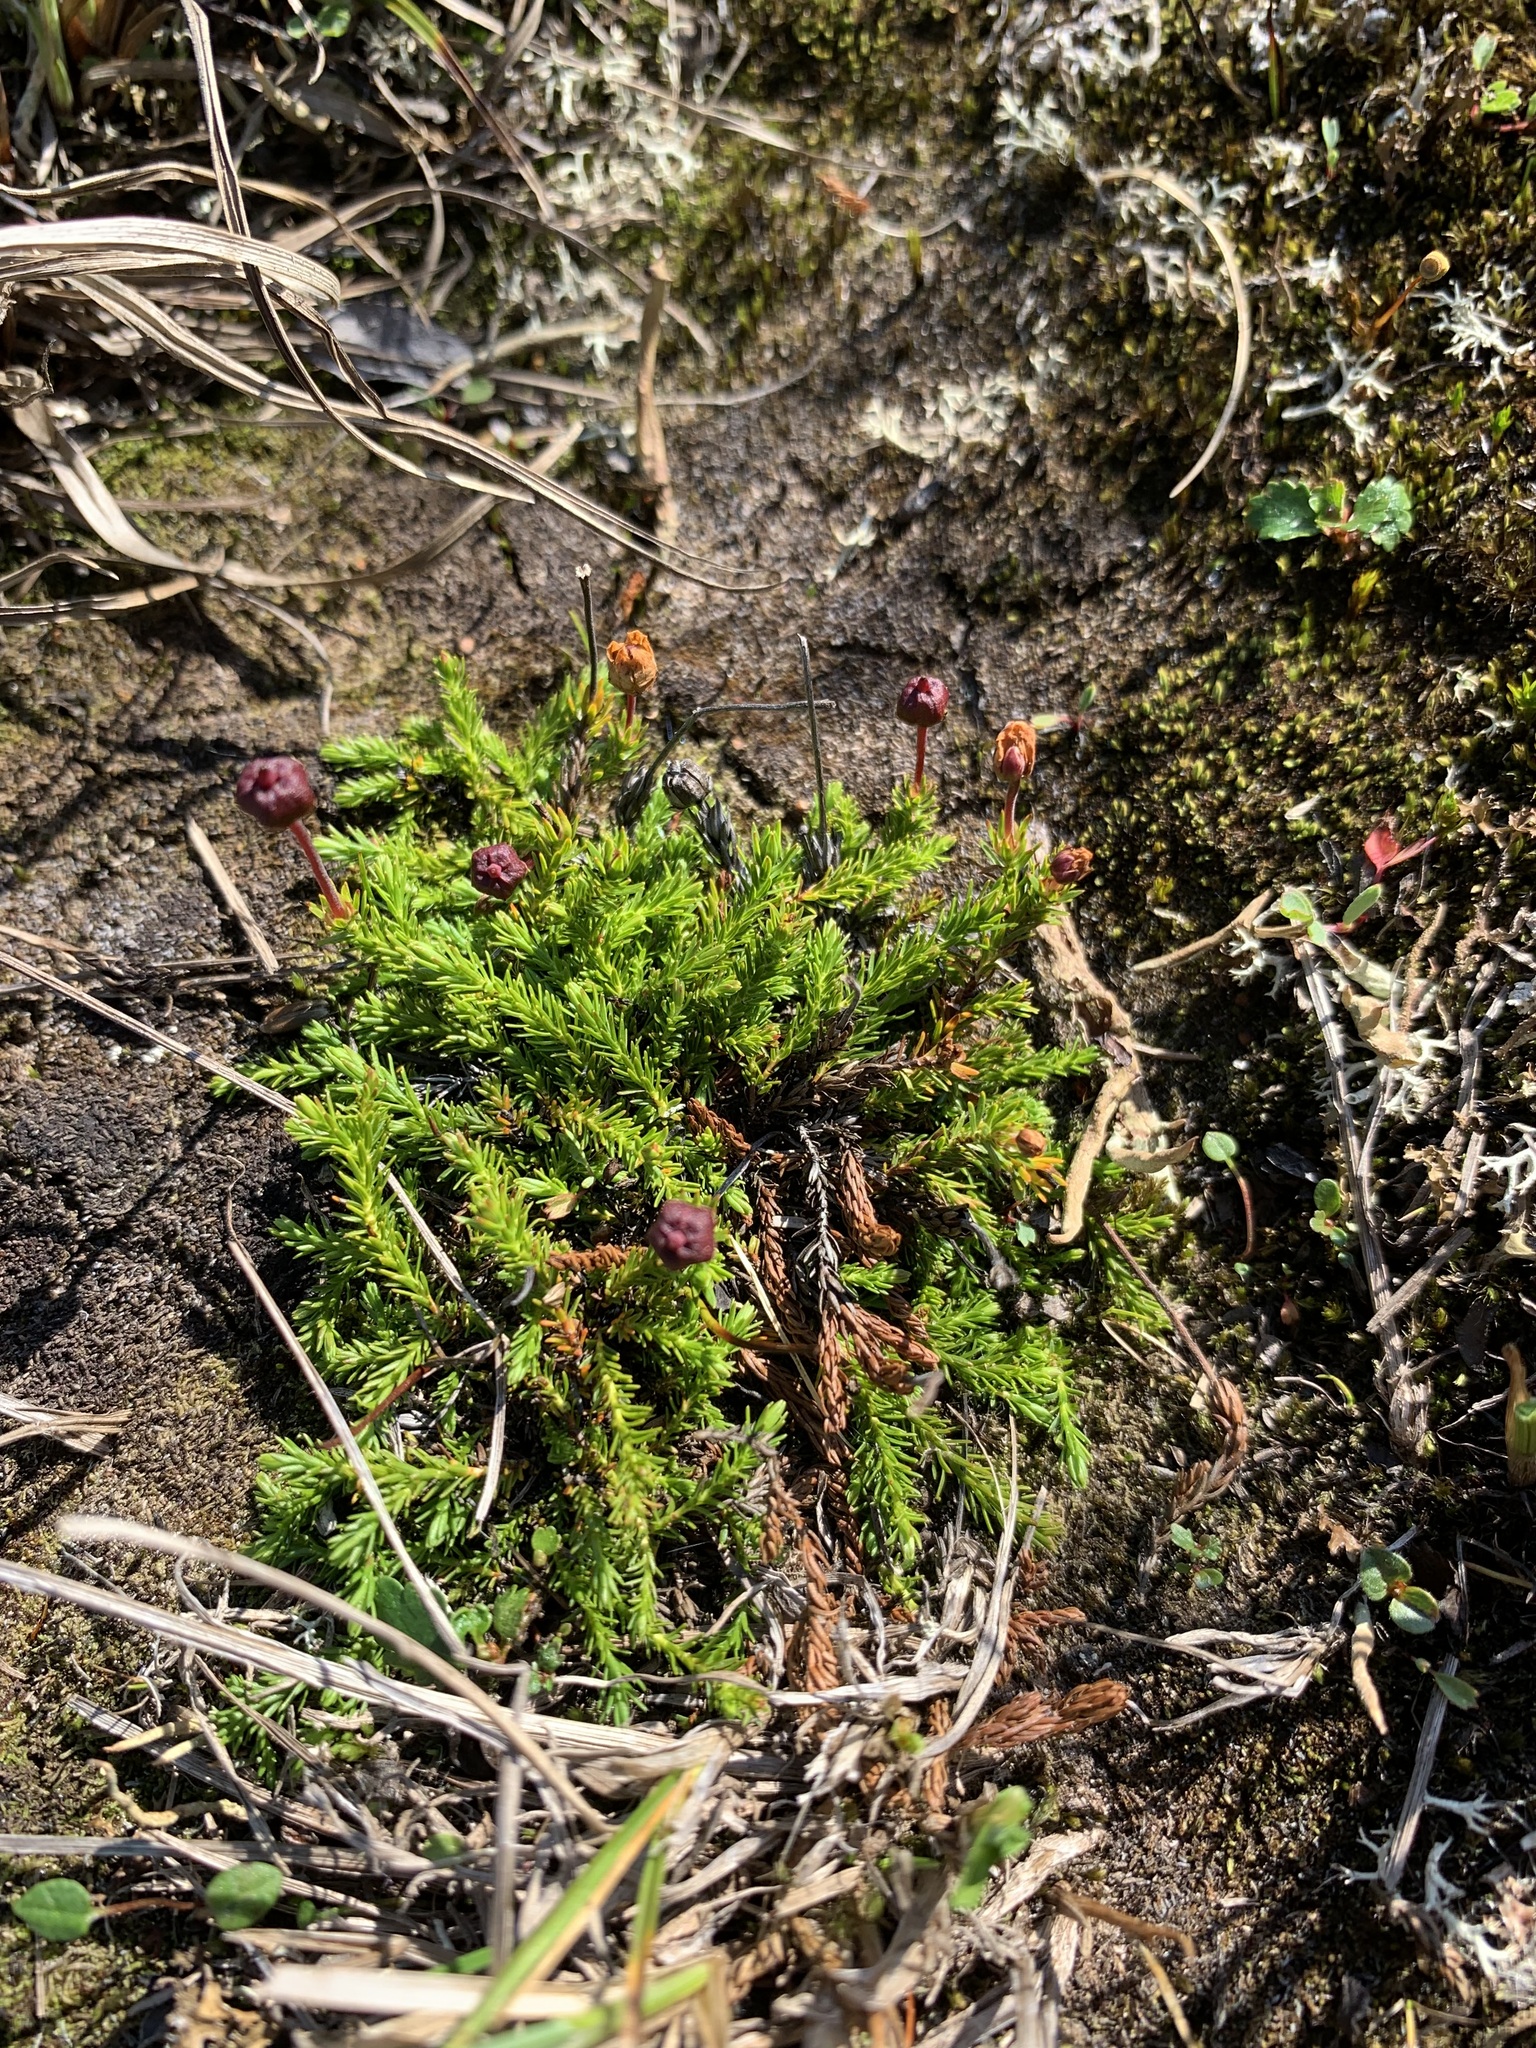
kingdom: Plantae
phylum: Tracheophyta
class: Magnoliopsida
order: Ericales
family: Ericaceae
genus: Harrimanella
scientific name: Harrimanella hypnoides
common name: Moss bell heather
